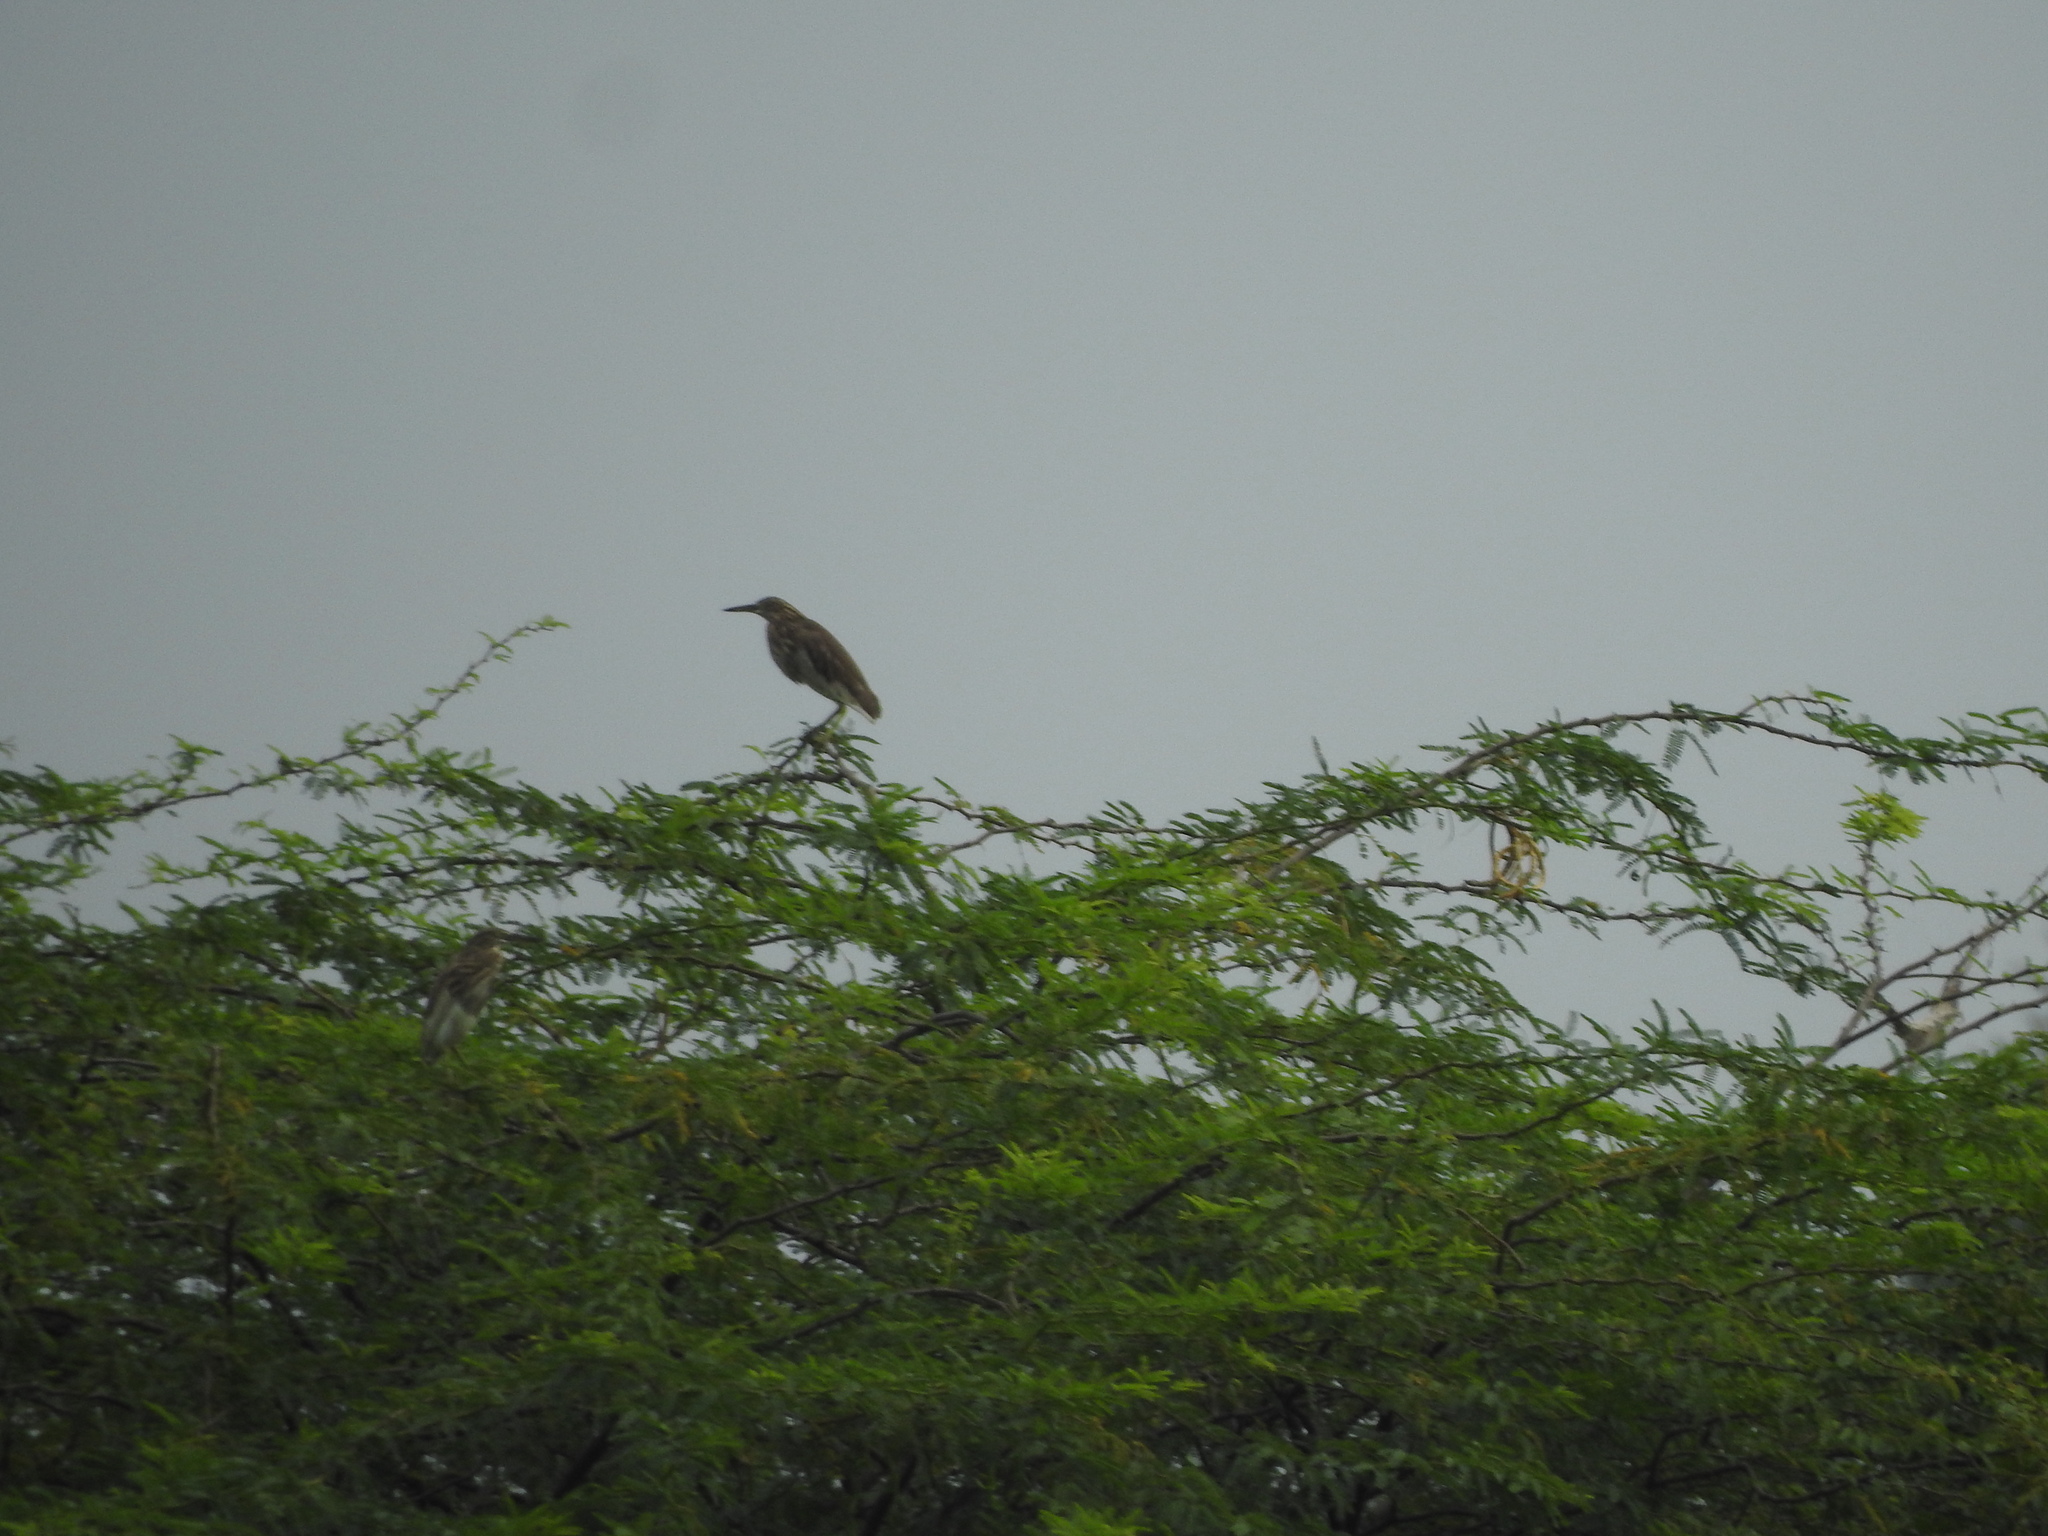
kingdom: Animalia
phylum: Chordata
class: Aves
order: Pelecaniformes
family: Ardeidae
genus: Ardeola
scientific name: Ardeola grayii
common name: Indian pond heron
